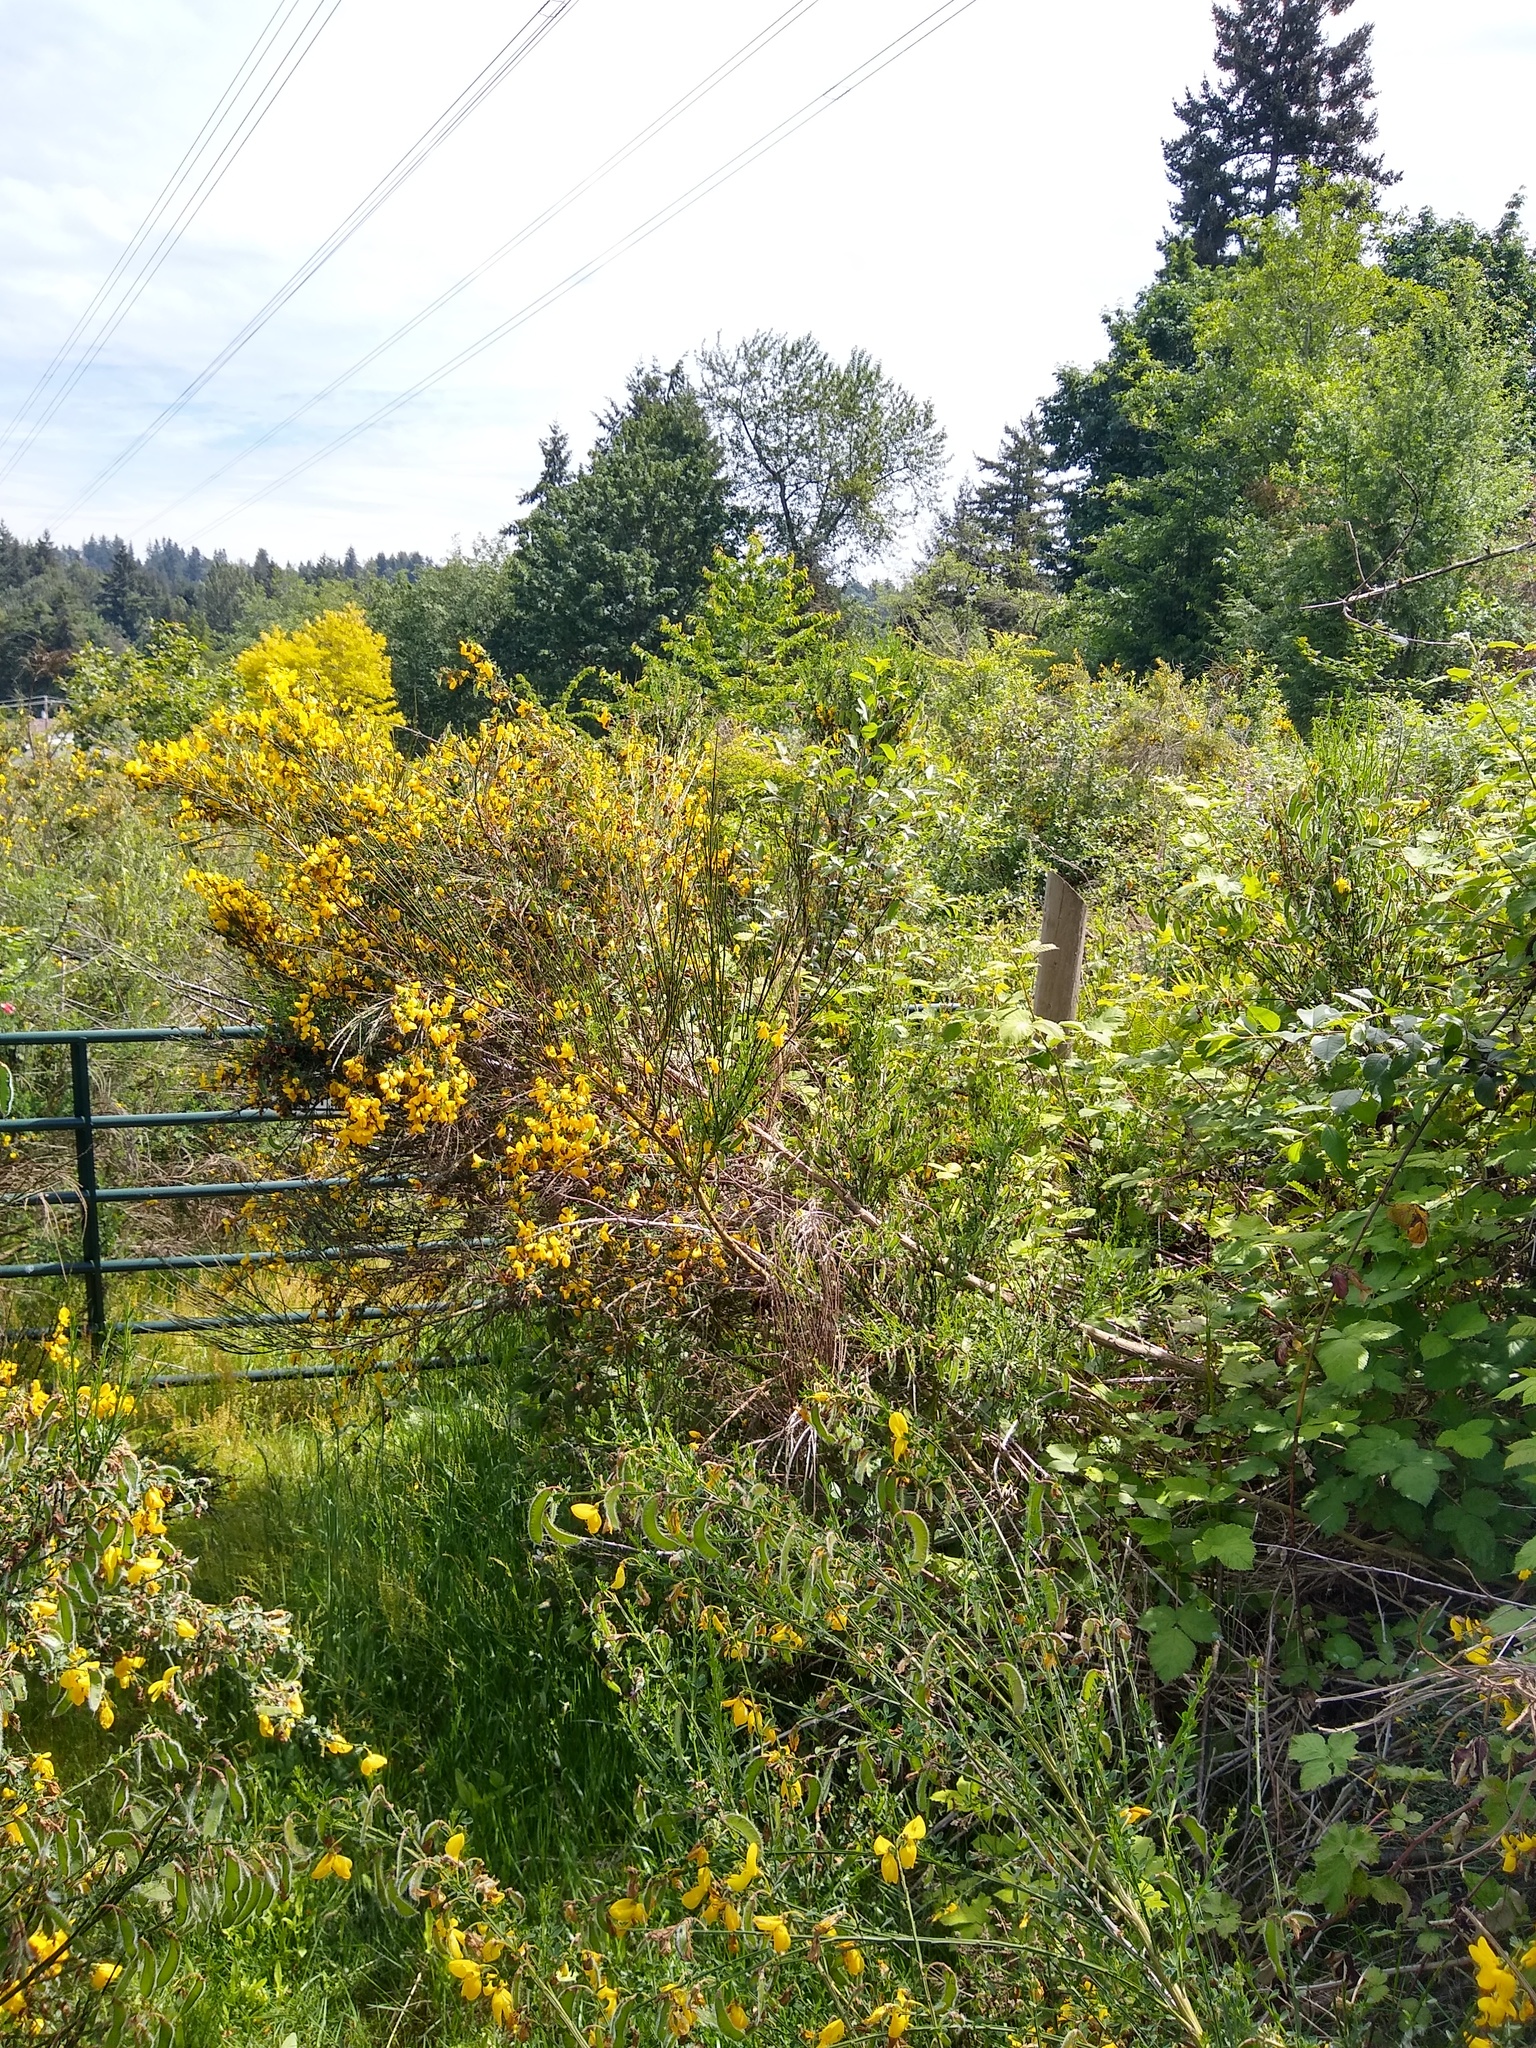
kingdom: Plantae
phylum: Tracheophyta
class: Magnoliopsida
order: Fabales
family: Fabaceae
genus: Cytisus
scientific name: Cytisus scoparius
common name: Scotch broom
